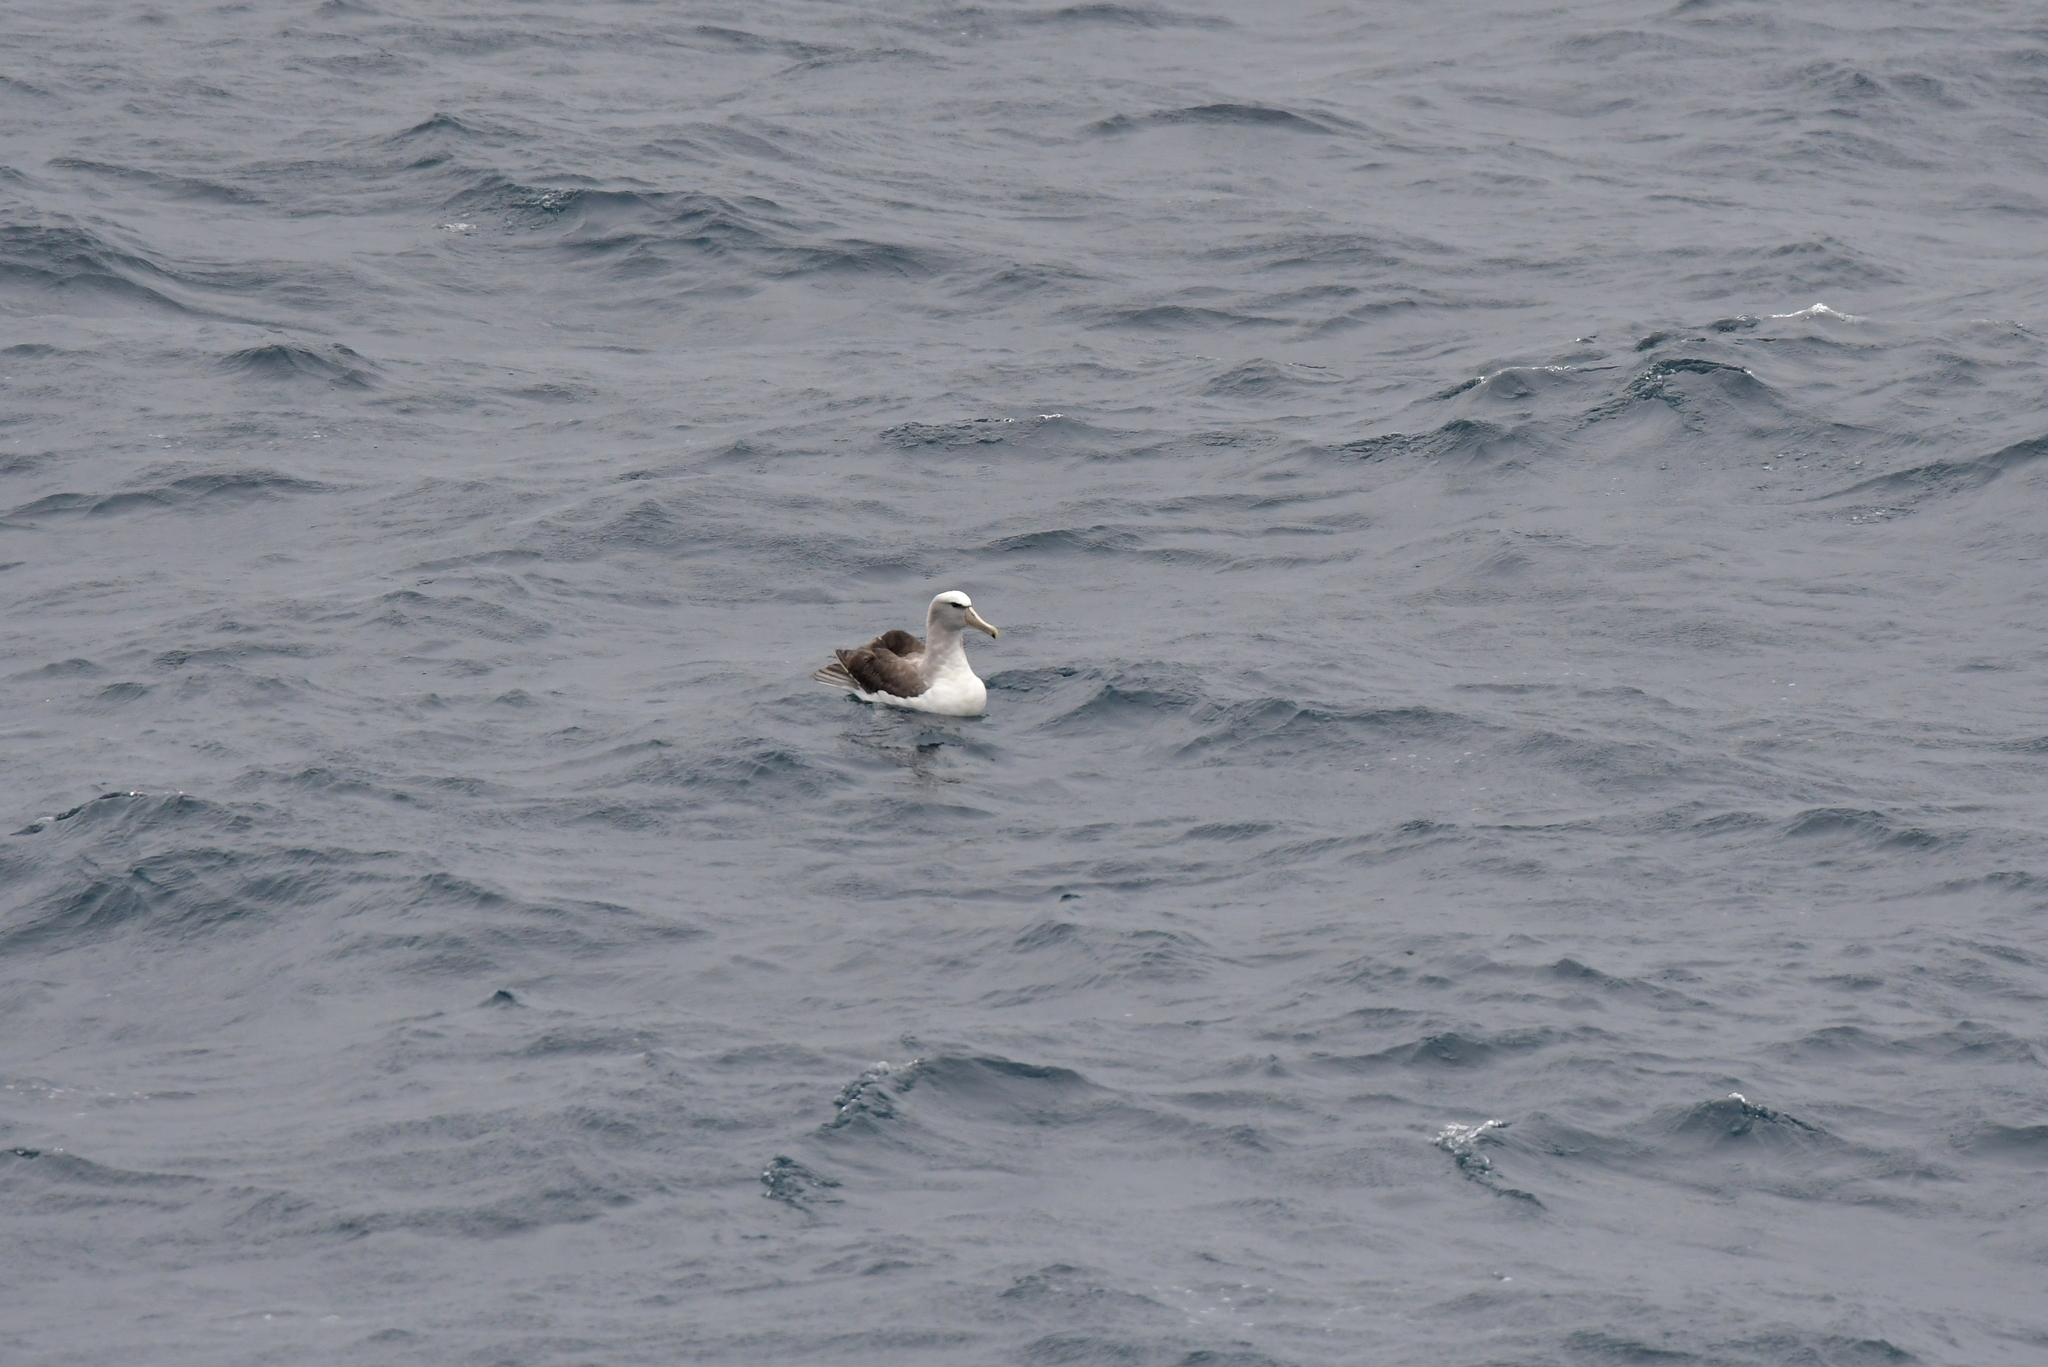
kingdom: Animalia
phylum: Chordata
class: Aves
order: Procellariiformes
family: Diomedeidae
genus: Thalassarche
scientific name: Thalassarche salvini
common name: Salvin's albatross
